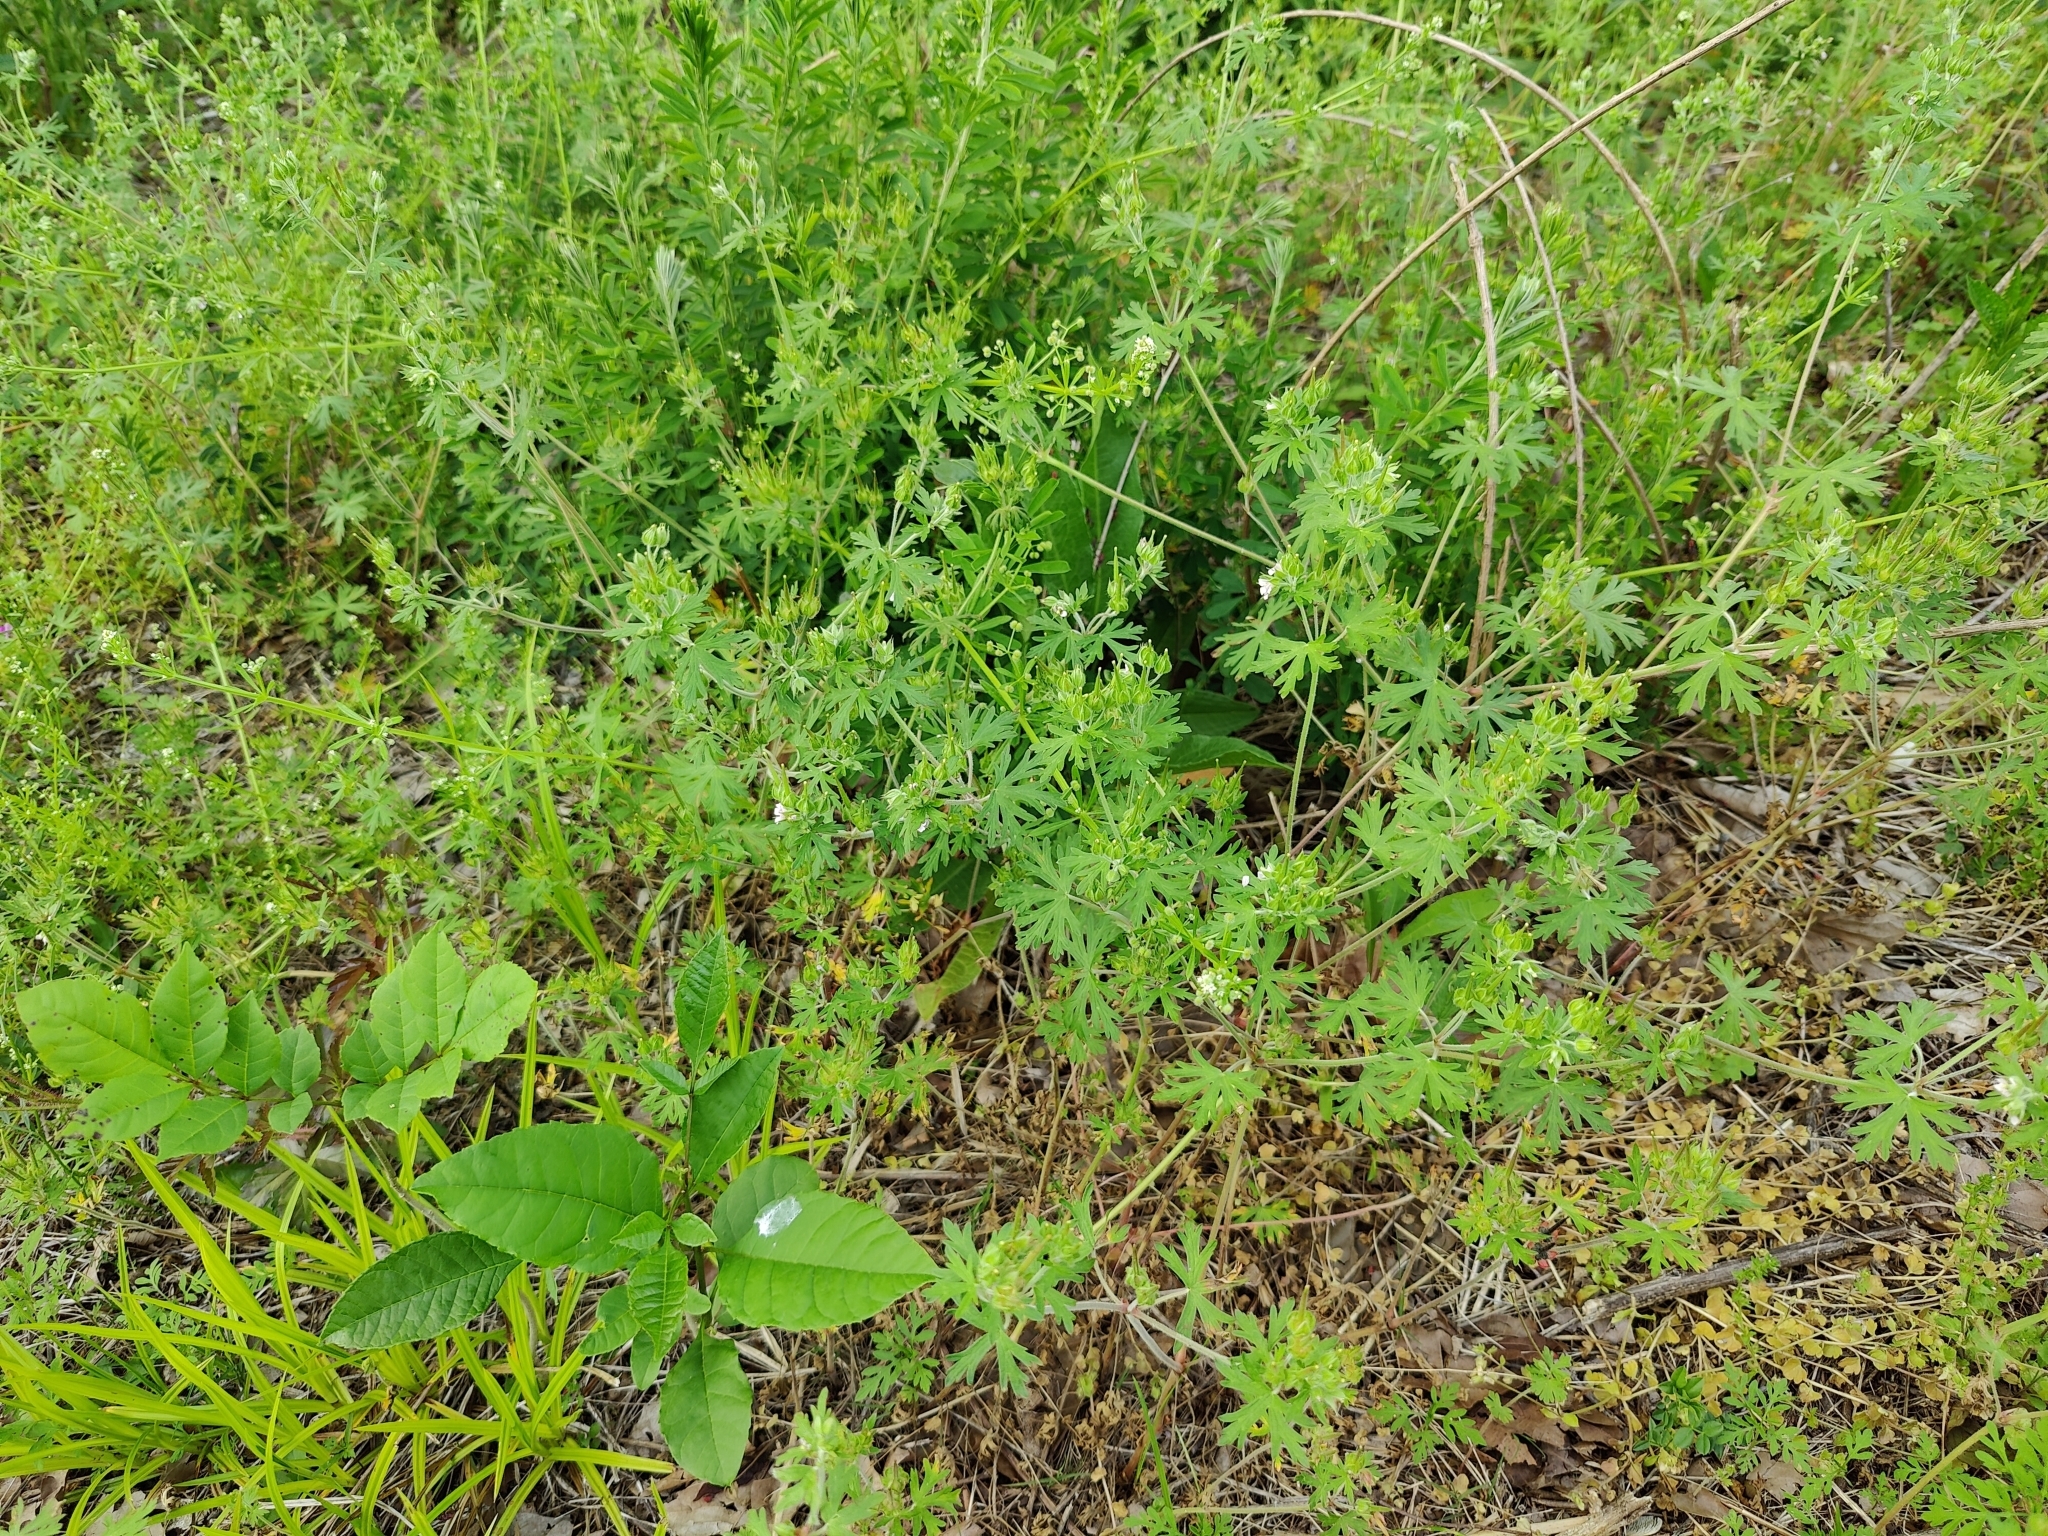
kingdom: Plantae
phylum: Tracheophyta
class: Magnoliopsida
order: Geraniales
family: Geraniaceae
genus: Geranium
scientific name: Geranium carolinianum
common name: Carolina crane's-bill
